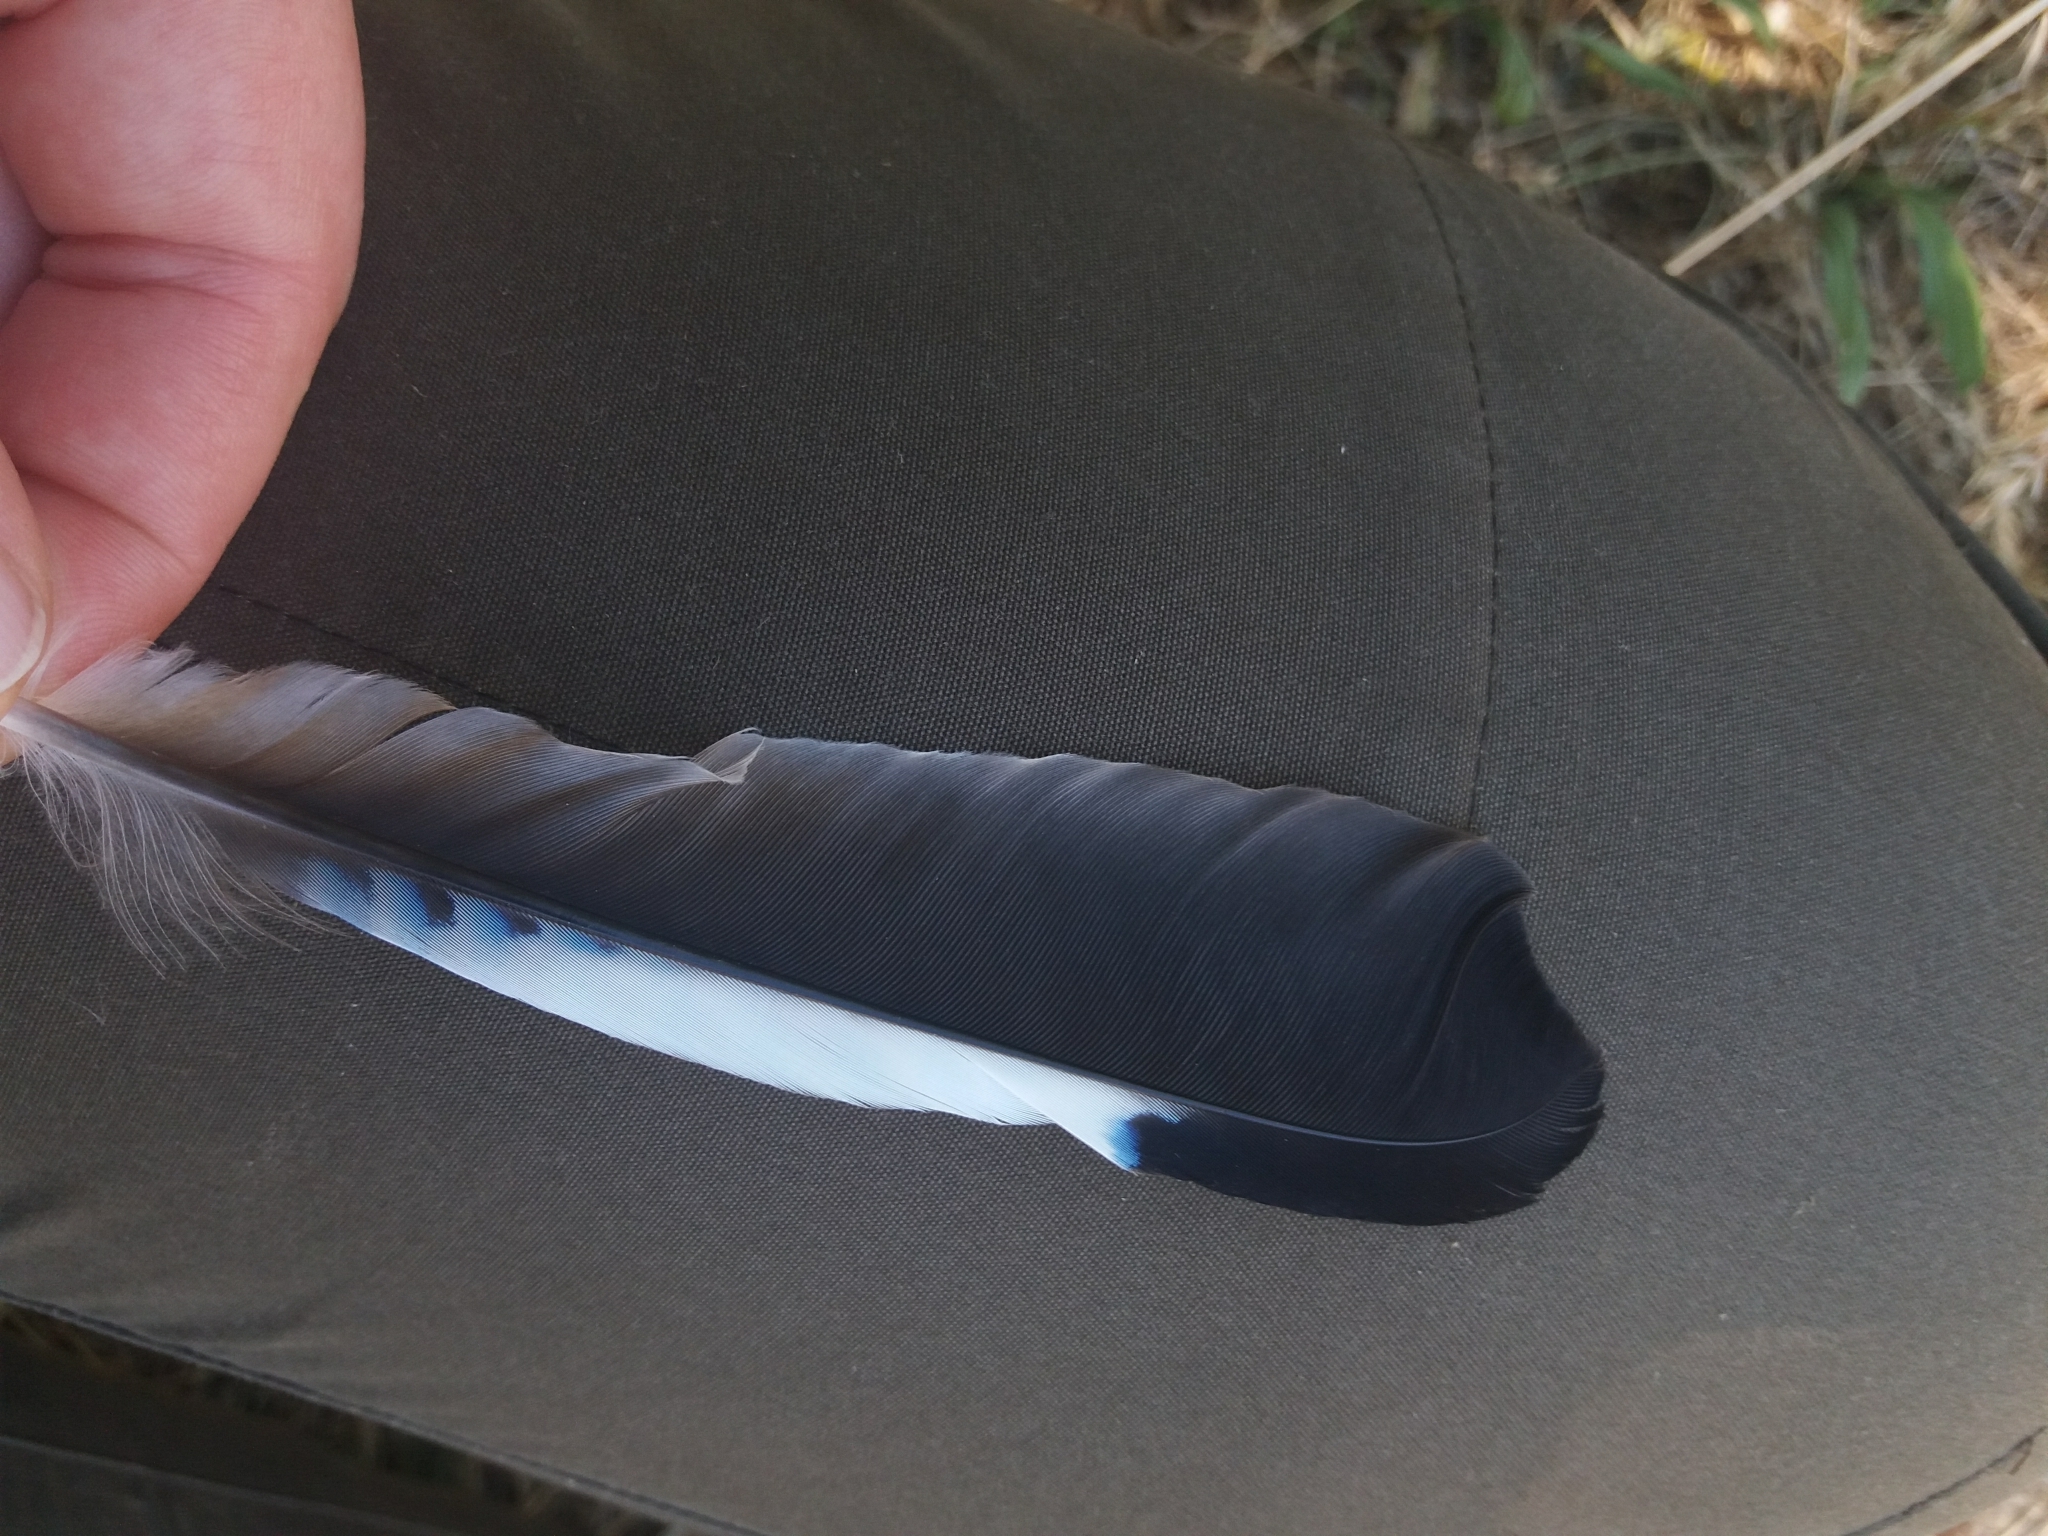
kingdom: Animalia
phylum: Chordata
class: Aves
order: Passeriformes
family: Corvidae
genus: Garrulus
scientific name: Garrulus glandarius
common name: Eurasian jay
